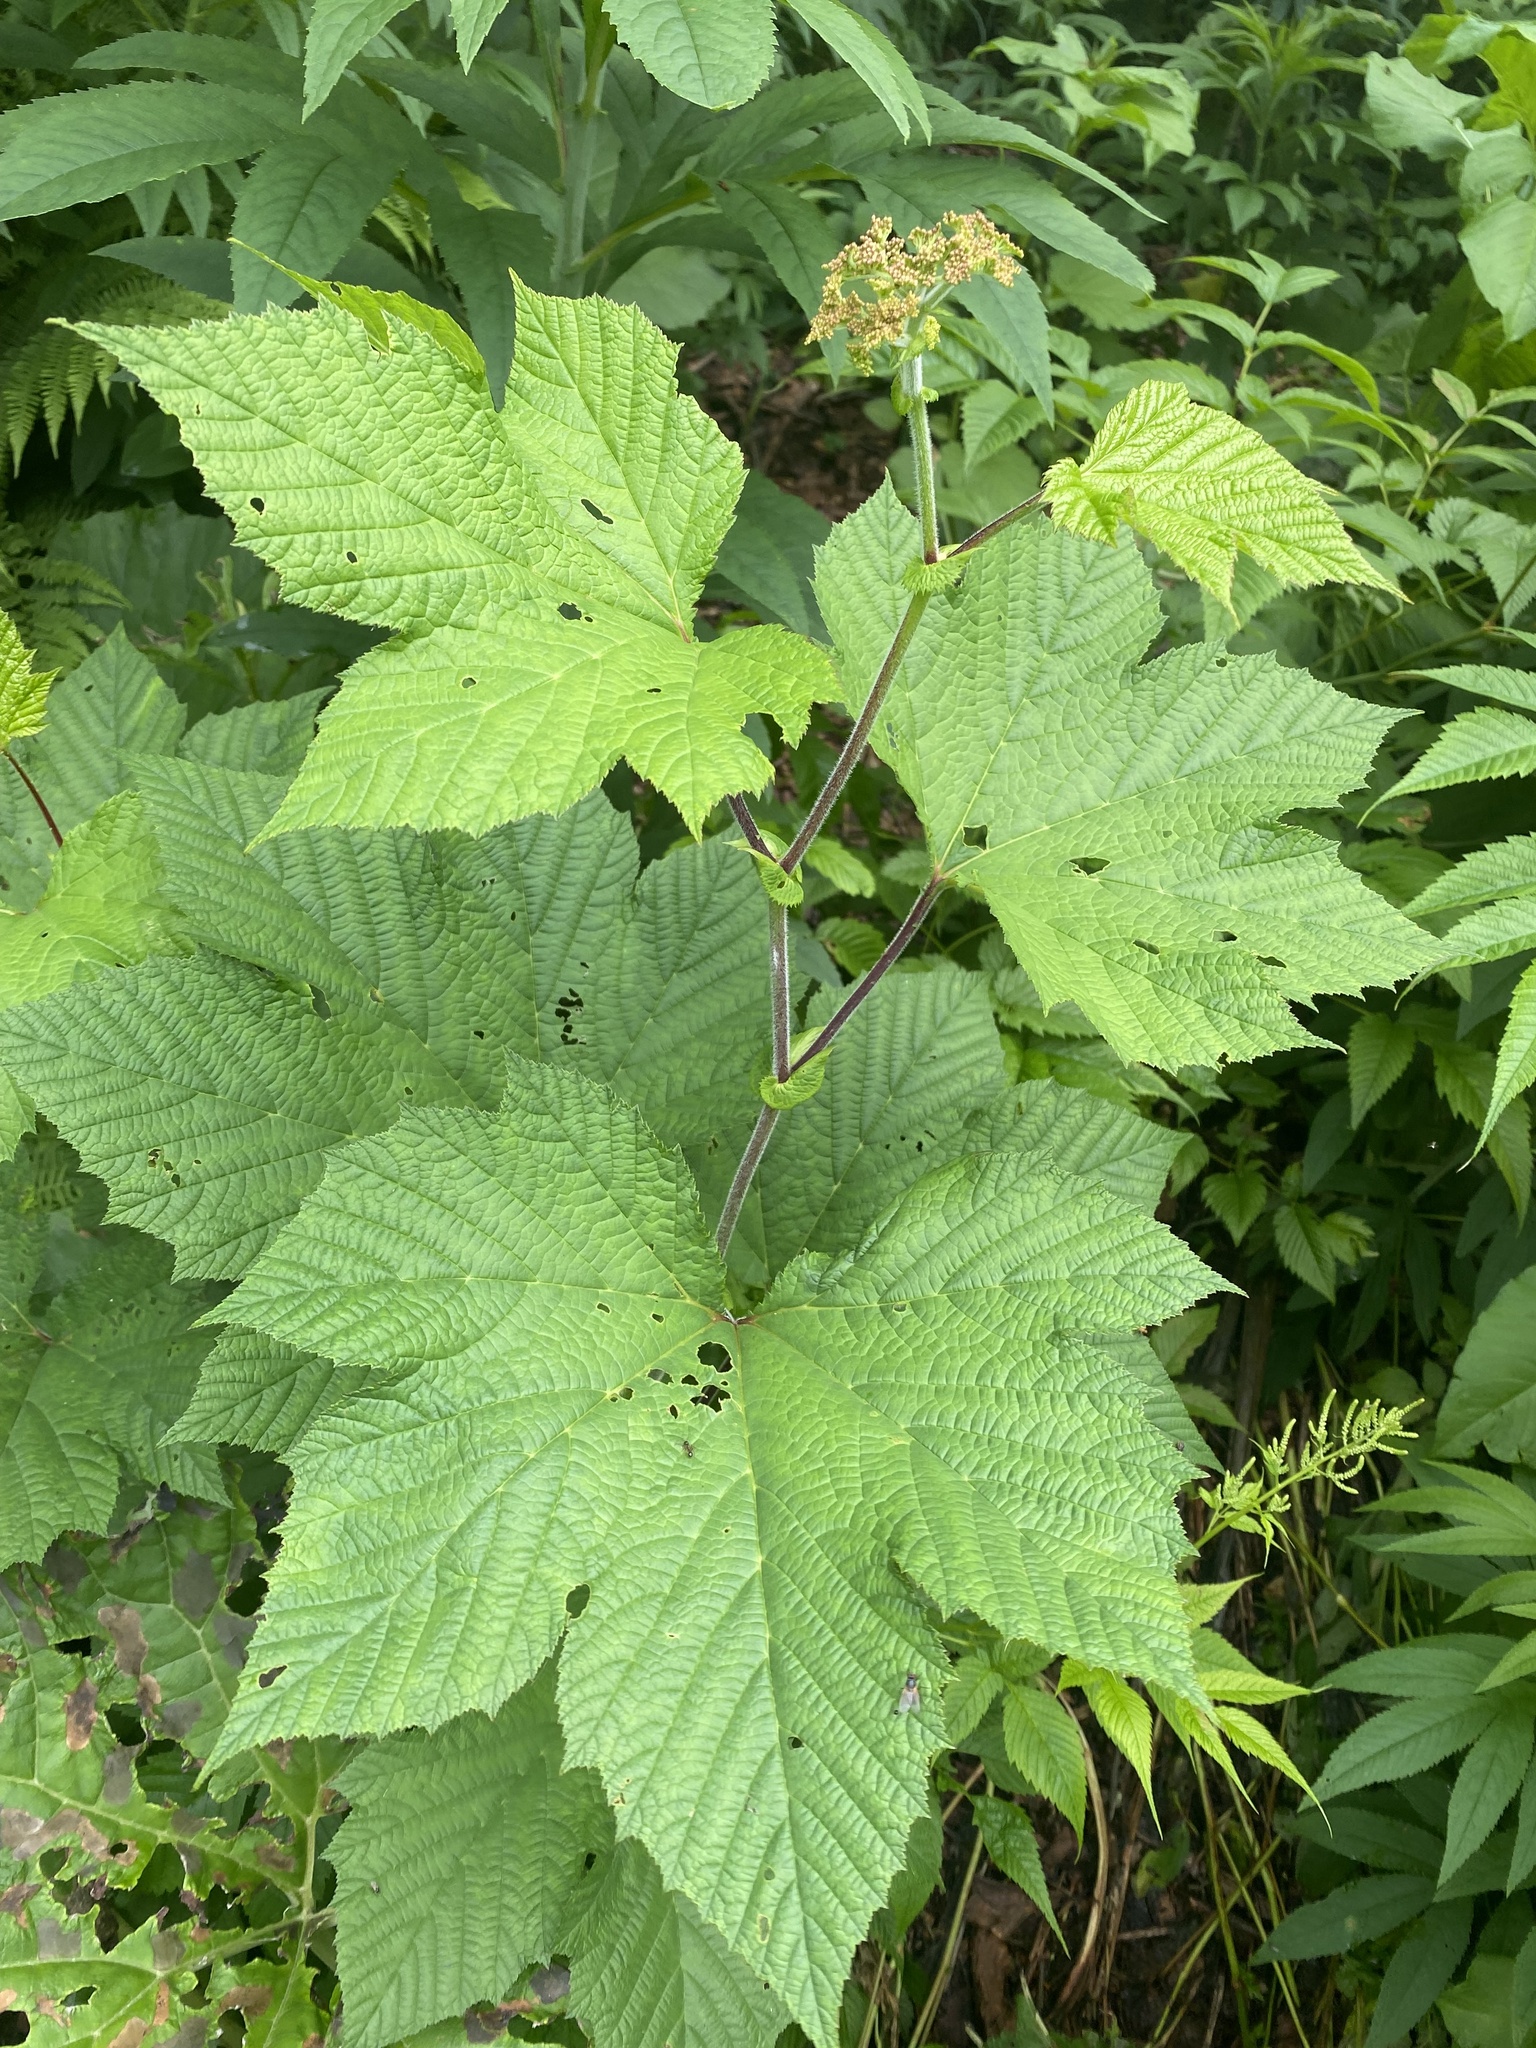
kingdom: Plantae
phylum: Tracheophyta
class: Magnoliopsida
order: Rosales
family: Rosaceae
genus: Filipendula
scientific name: Filipendula camtschatica
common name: Giant meadowsweet
